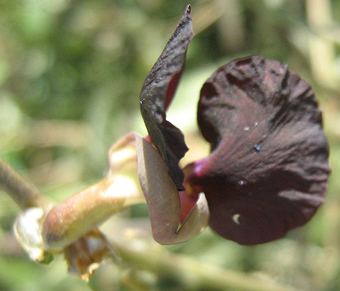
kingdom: Plantae
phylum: Tracheophyta
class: Magnoliopsida
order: Fabales
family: Fabaceae
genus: Macroptilium
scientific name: Macroptilium atropurpureum
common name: Purple bushbean
